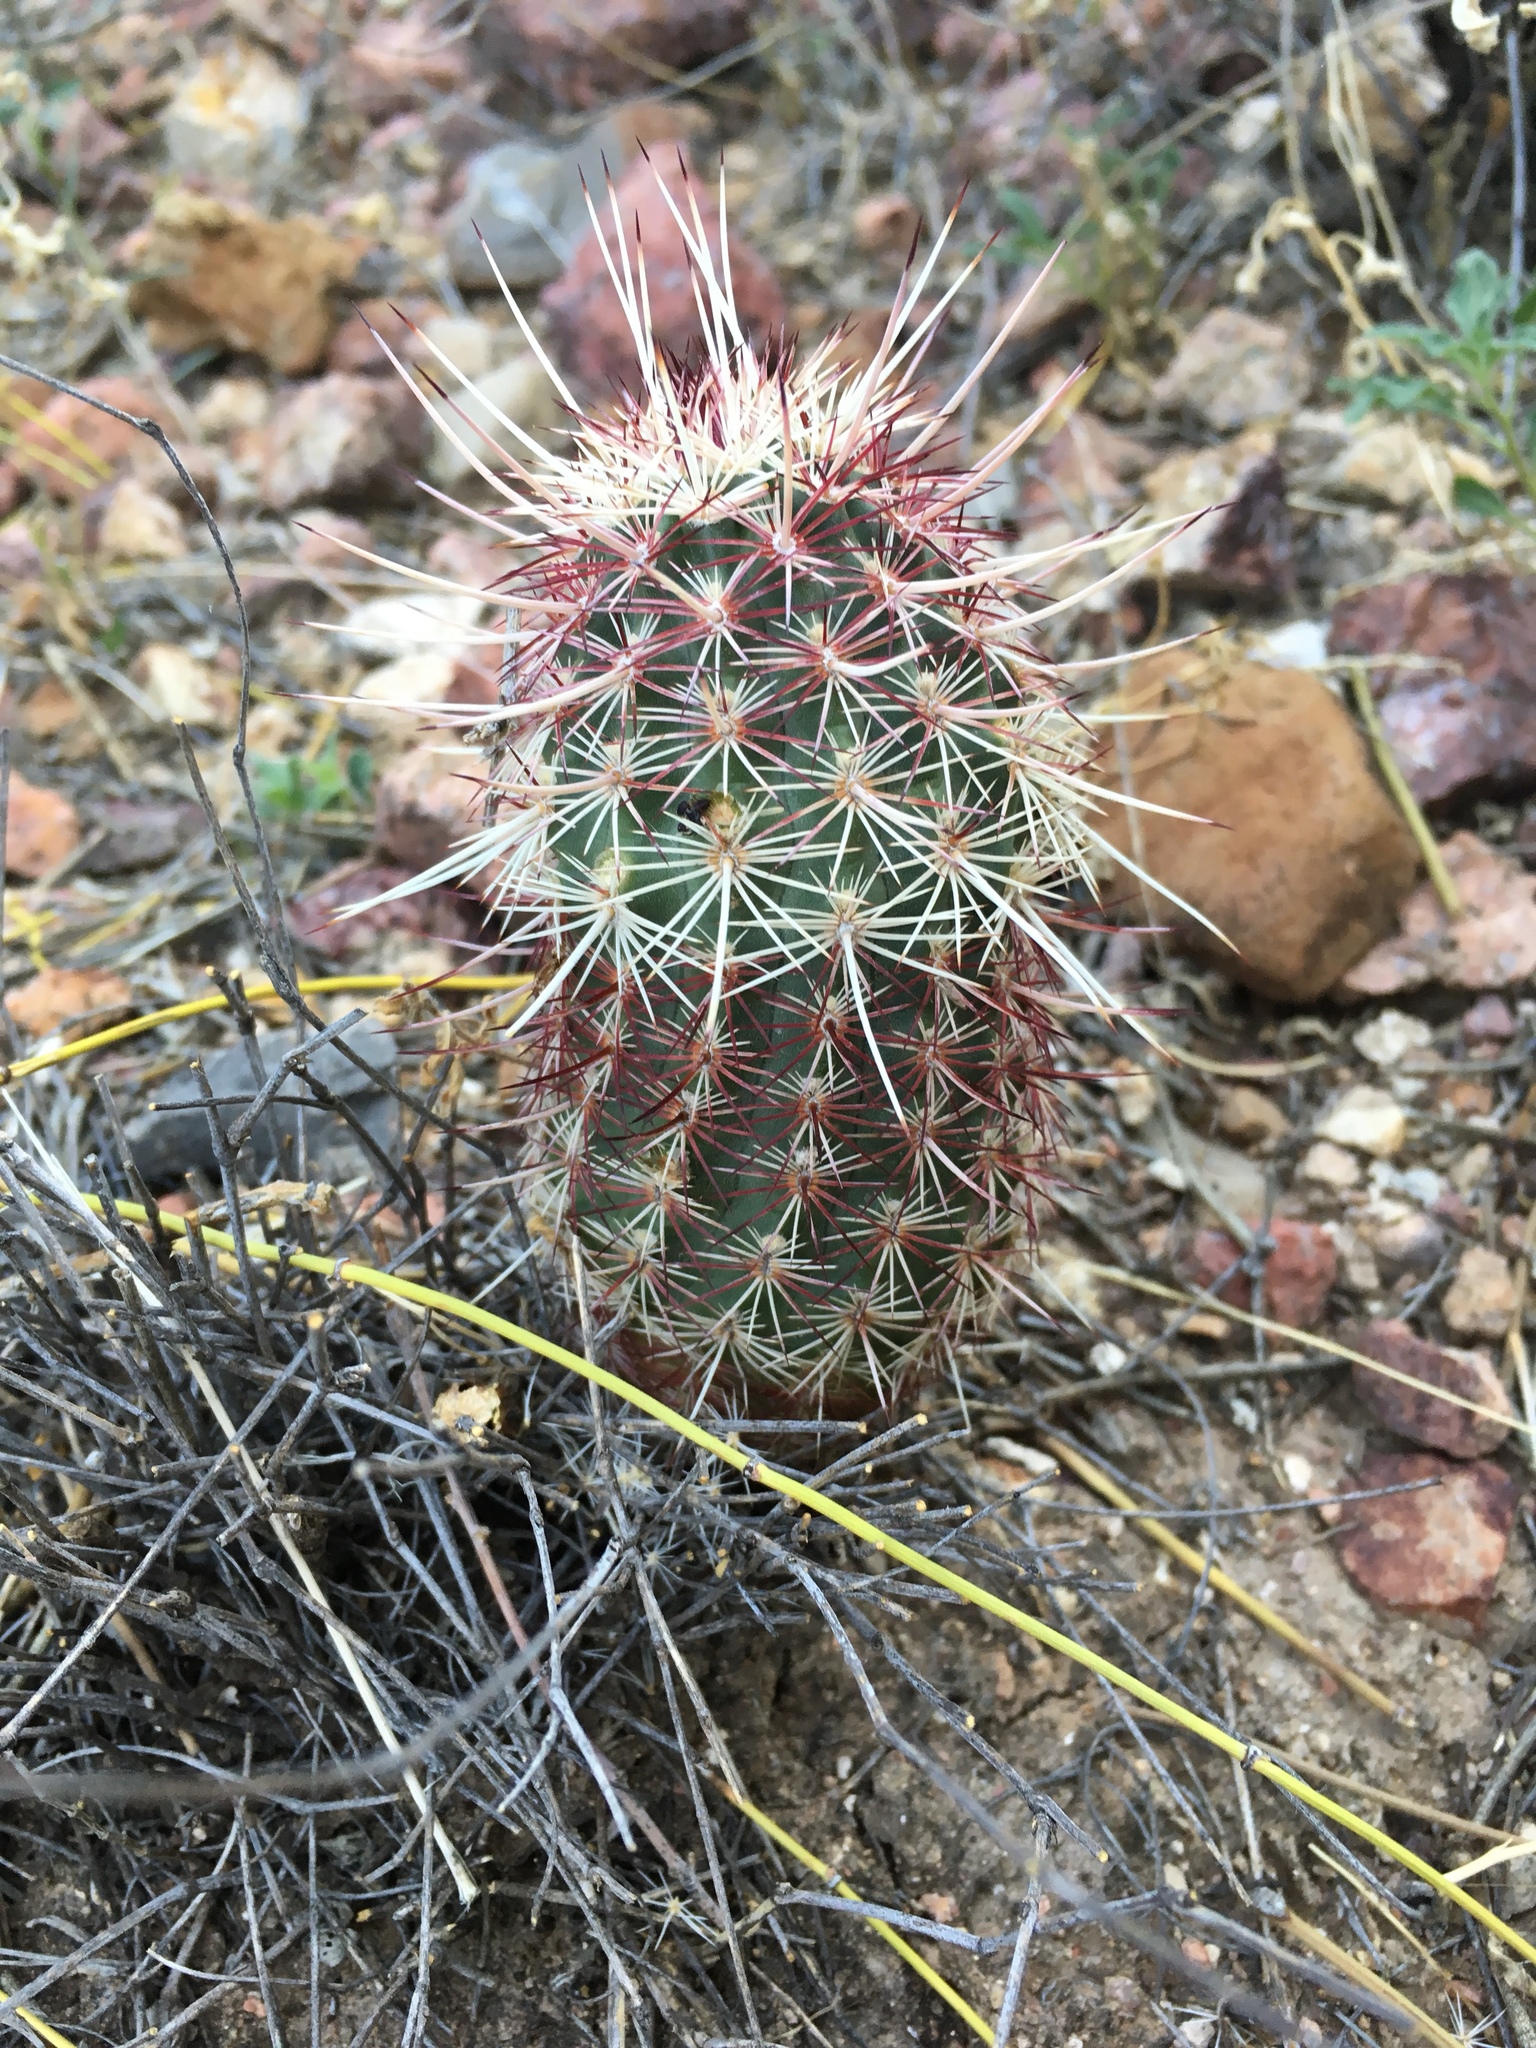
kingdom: Plantae
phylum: Tracheophyta
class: Magnoliopsida
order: Caryophyllales
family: Cactaceae
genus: Echinocereus
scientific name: Echinocereus viridiflorus
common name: Nylon hedgehog cactus
